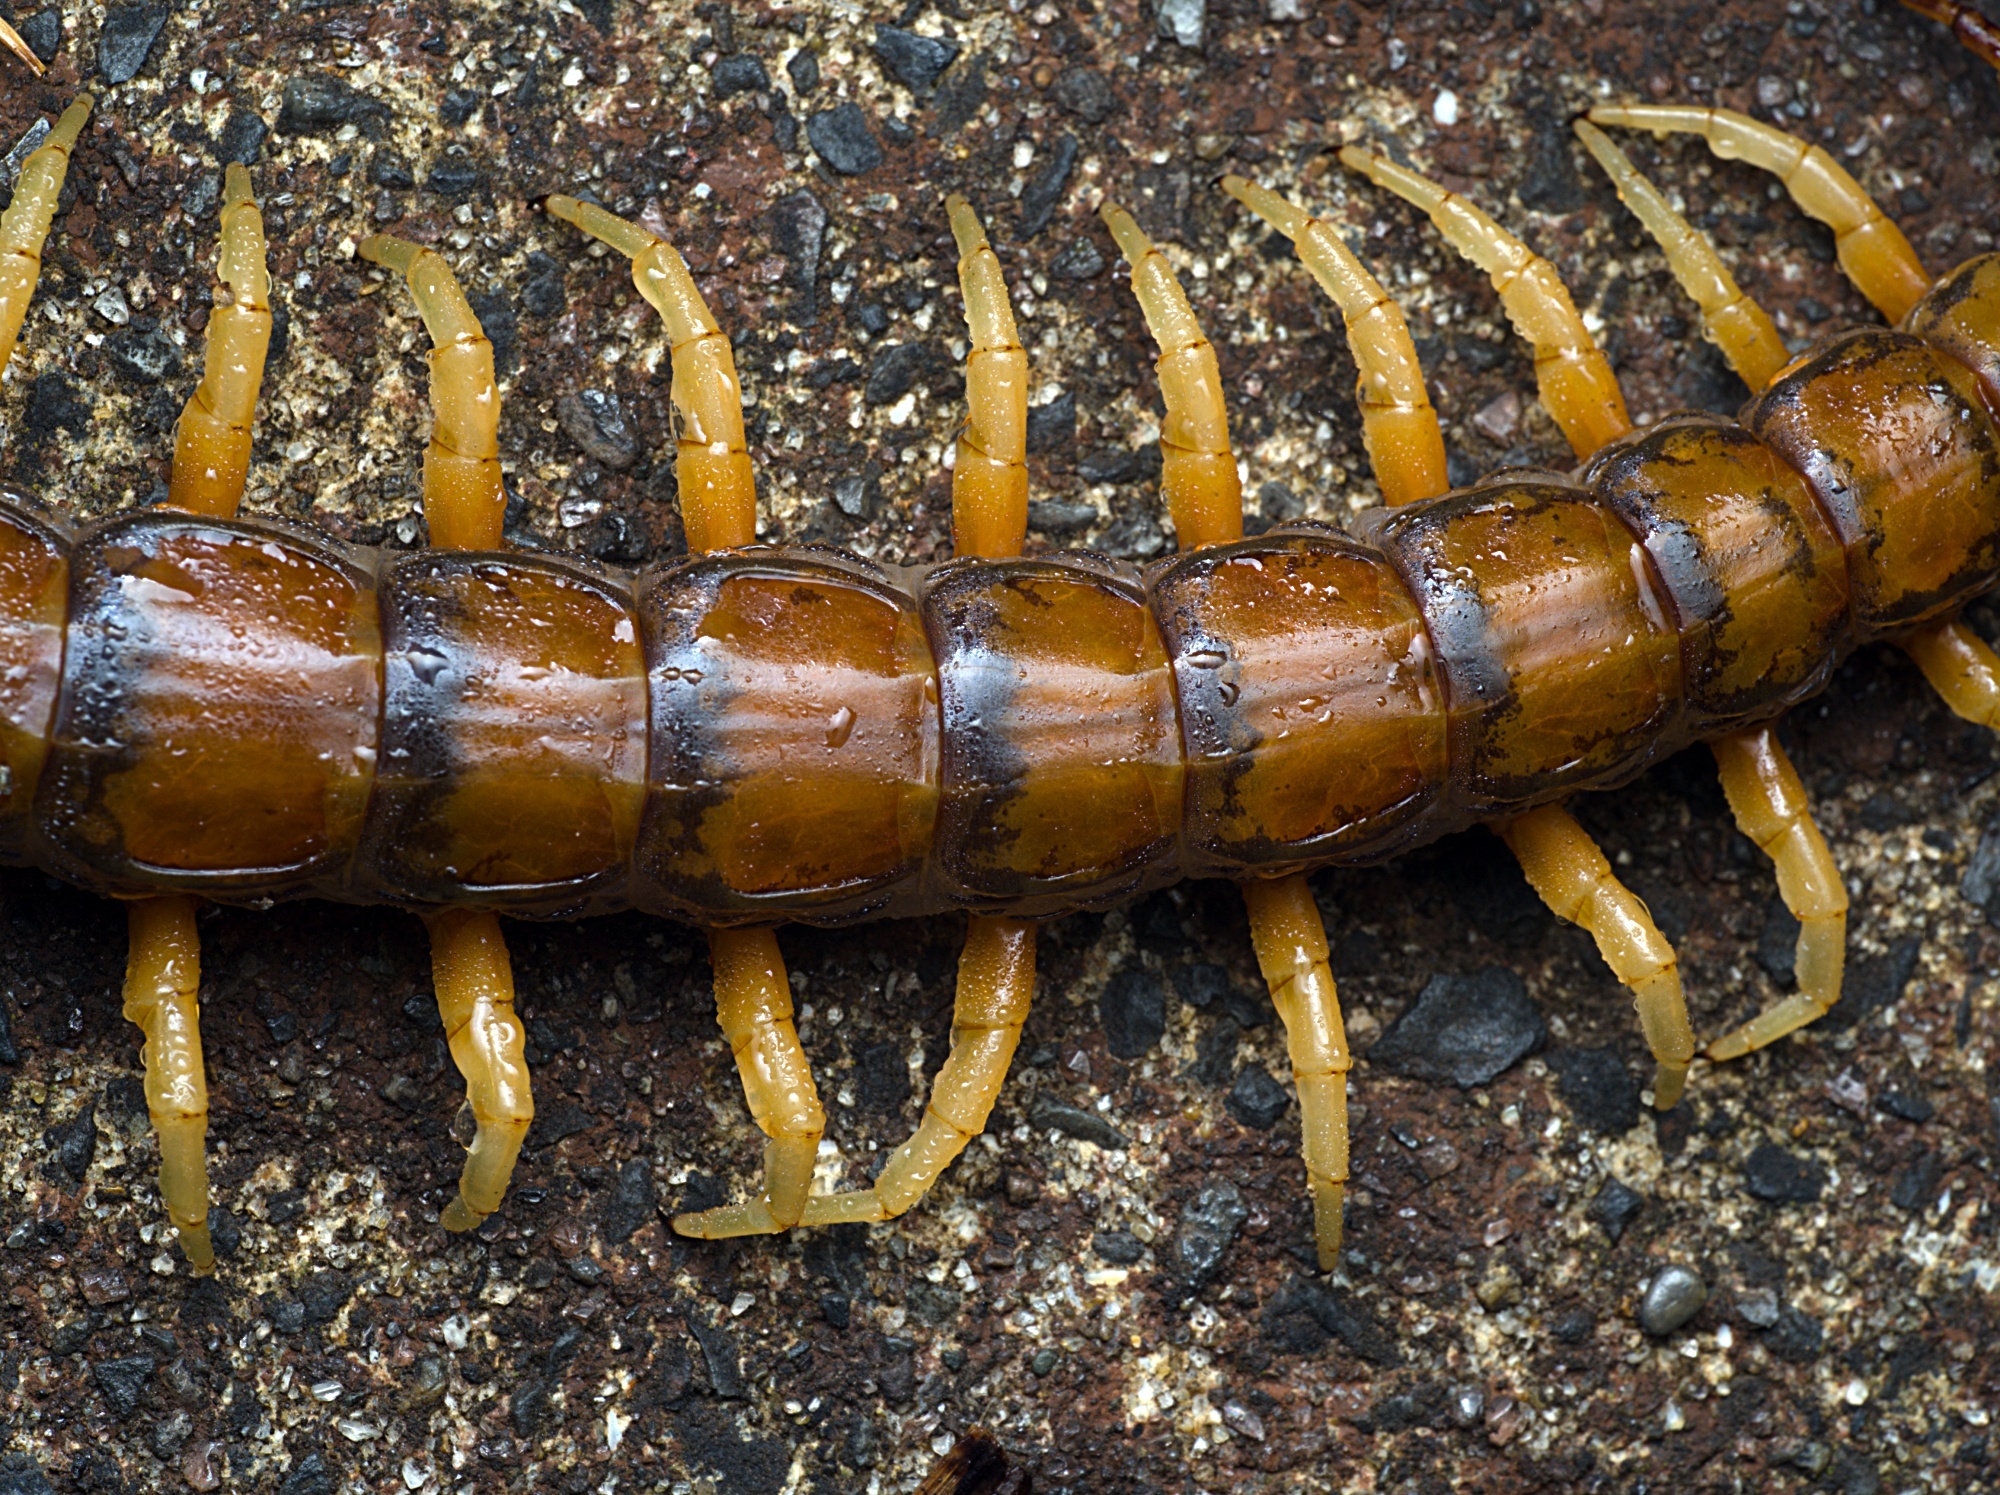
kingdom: Animalia
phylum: Arthropoda
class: Chilopoda
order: Scolopendromorpha
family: Scolopendridae
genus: Cormocephalus
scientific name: Cormocephalus rubriceps
